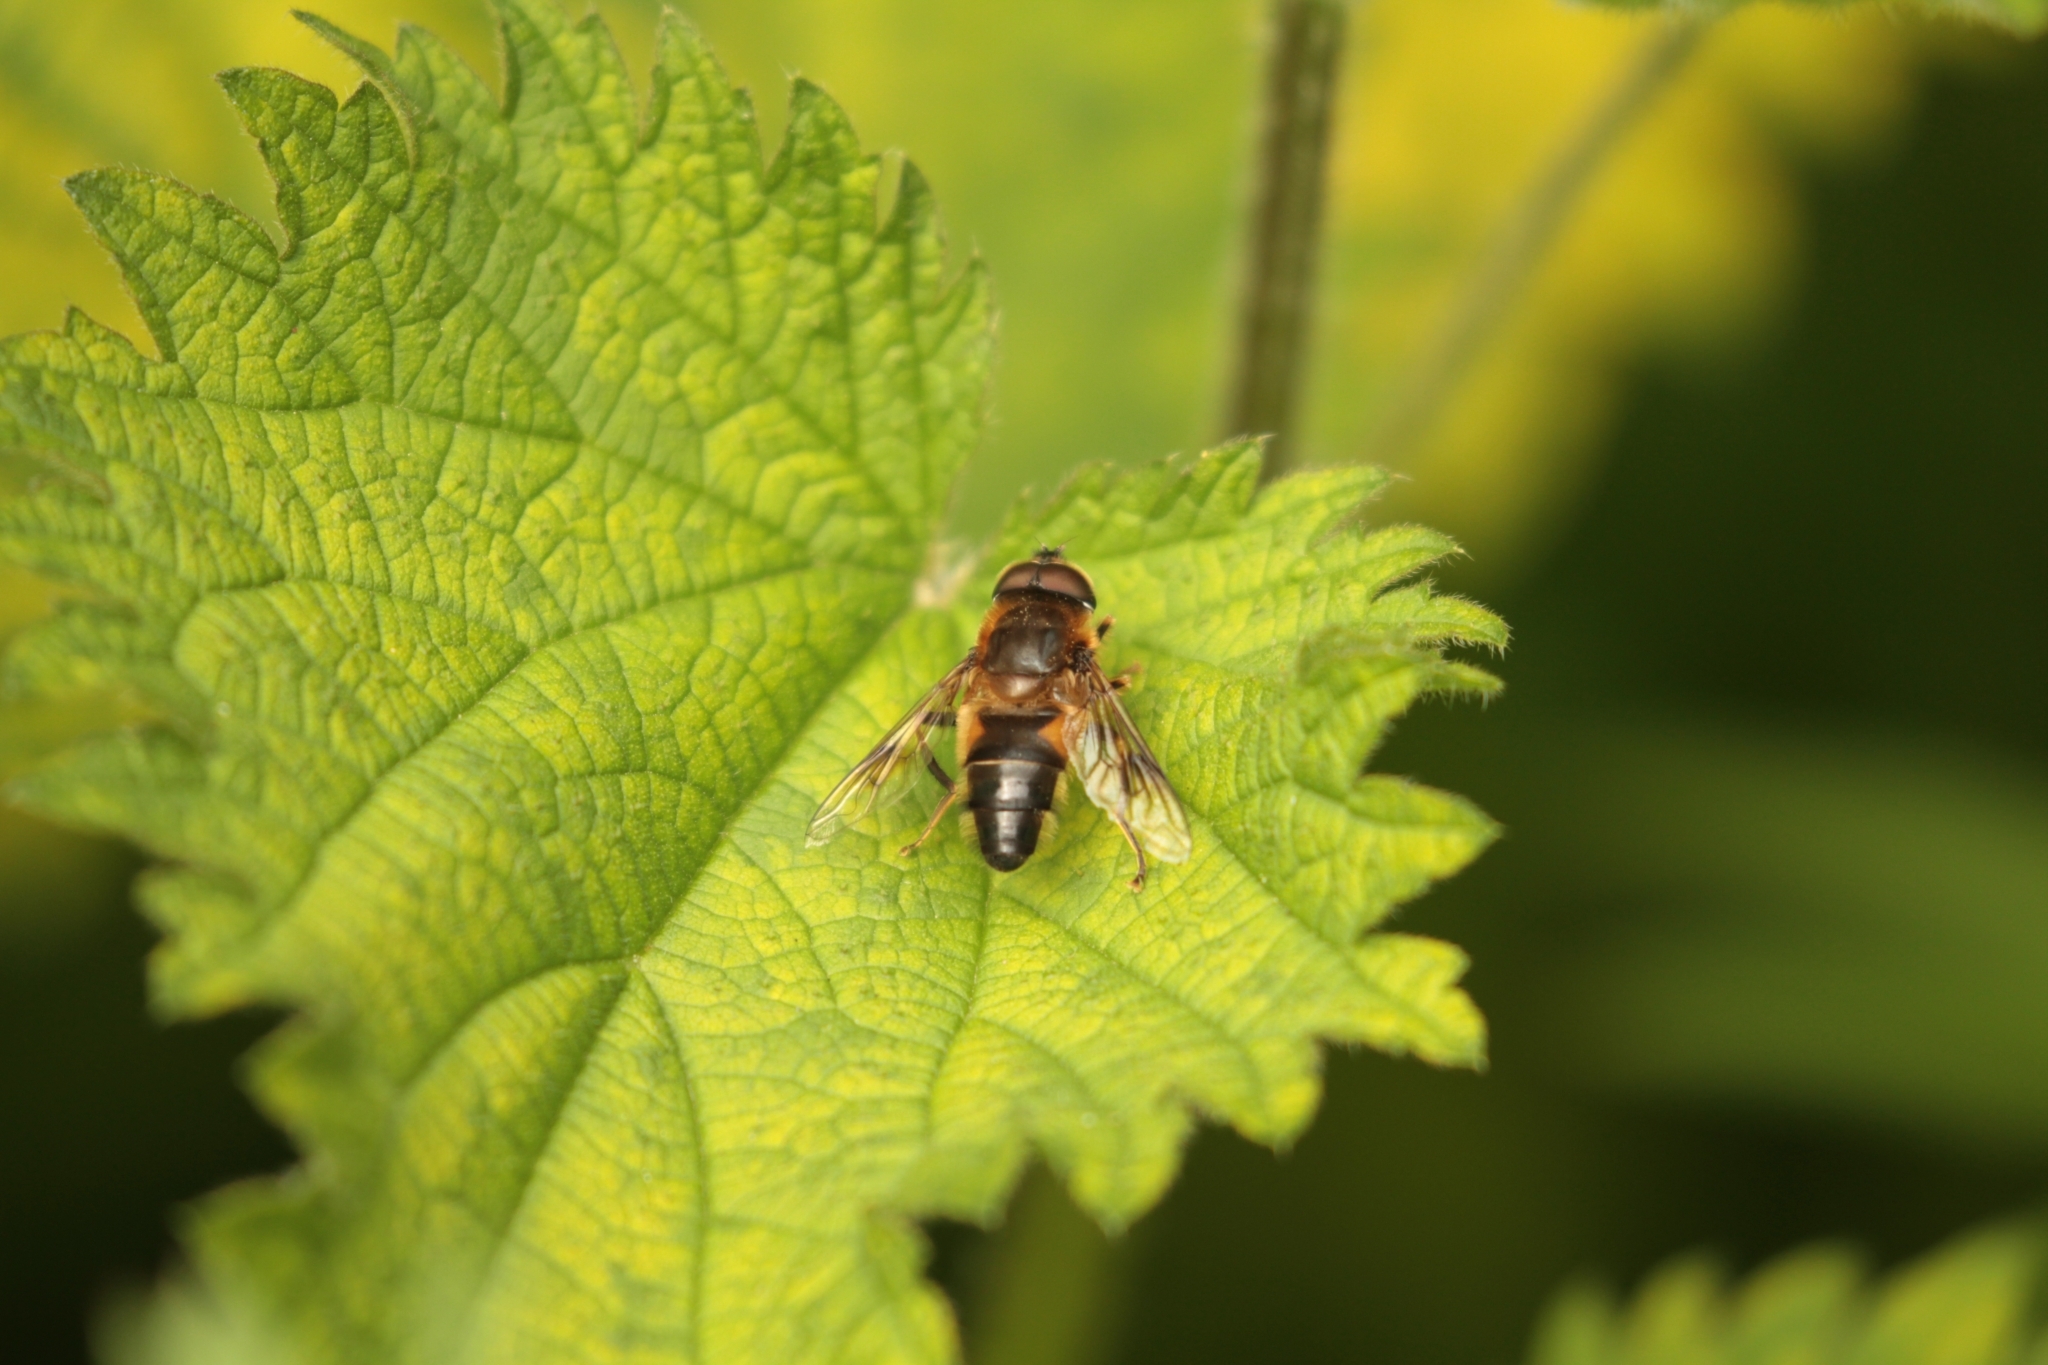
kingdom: Animalia
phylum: Arthropoda
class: Insecta
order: Diptera
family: Syrphidae
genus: Eristalis
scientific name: Eristalis pertinax
